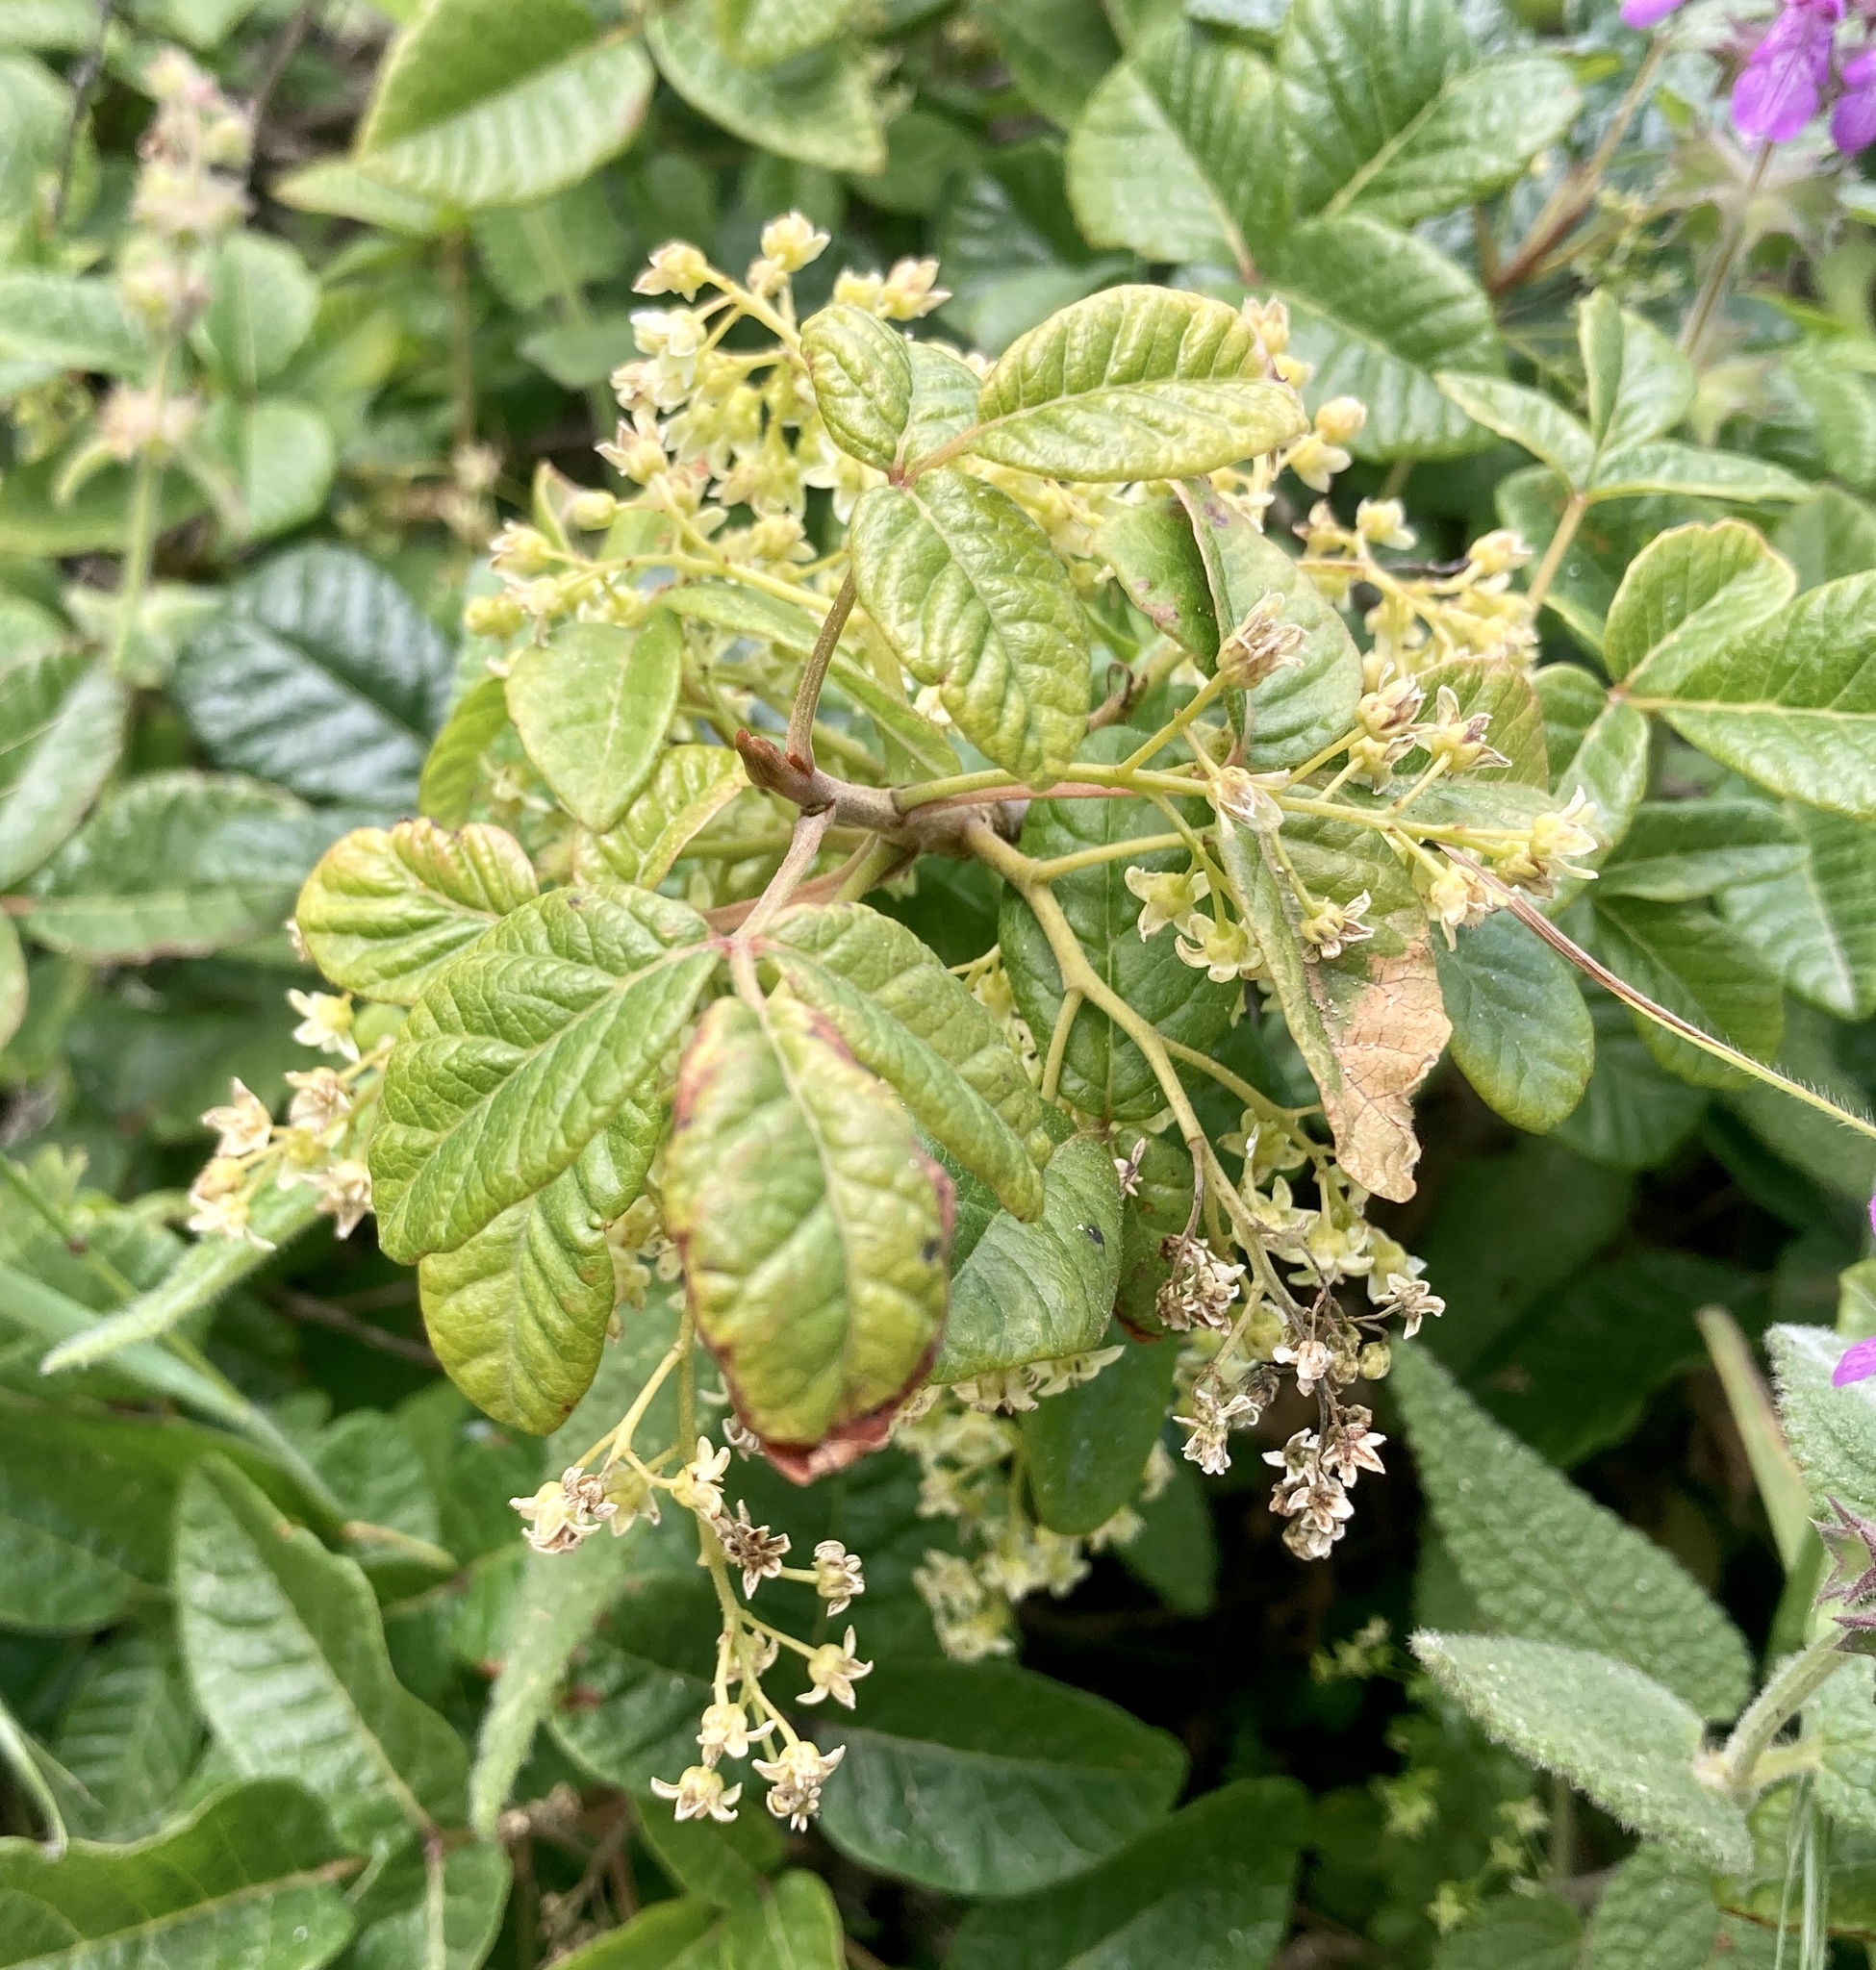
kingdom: Plantae
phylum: Tracheophyta
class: Magnoliopsida
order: Sapindales
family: Anacardiaceae
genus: Toxicodendron
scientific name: Toxicodendron diversilobum
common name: Pacific poison-oak
